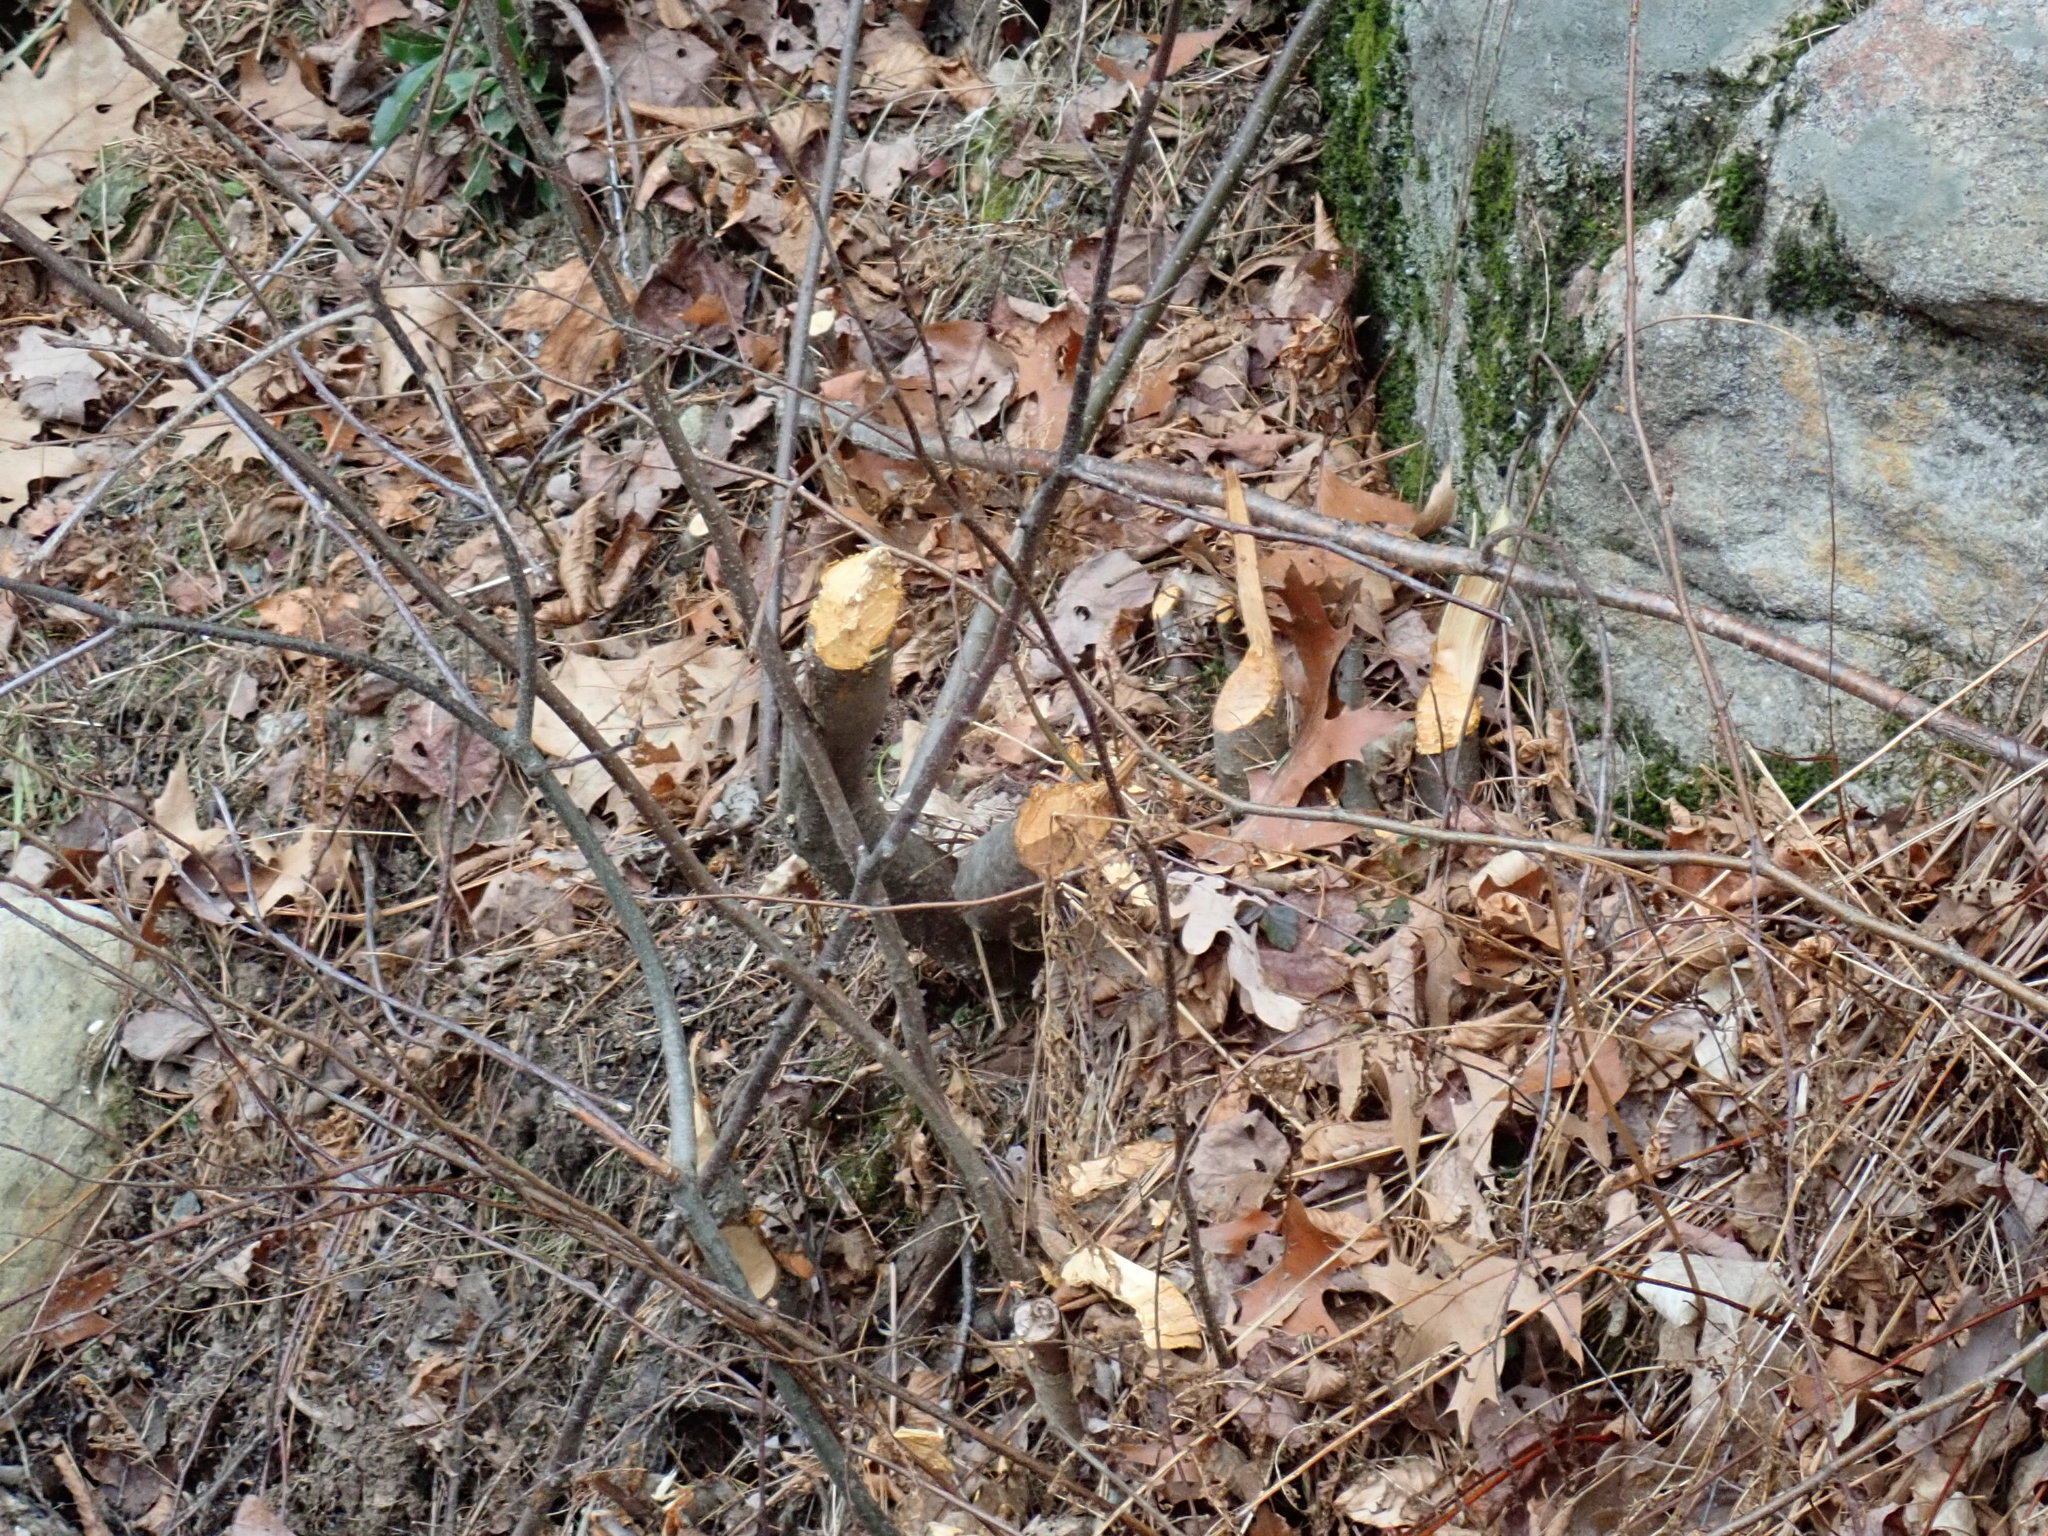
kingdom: Animalia
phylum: Chordata
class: Mammalia
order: Rodentia
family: Castoridae
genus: Castor
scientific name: Castor canadensis
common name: American beaver
